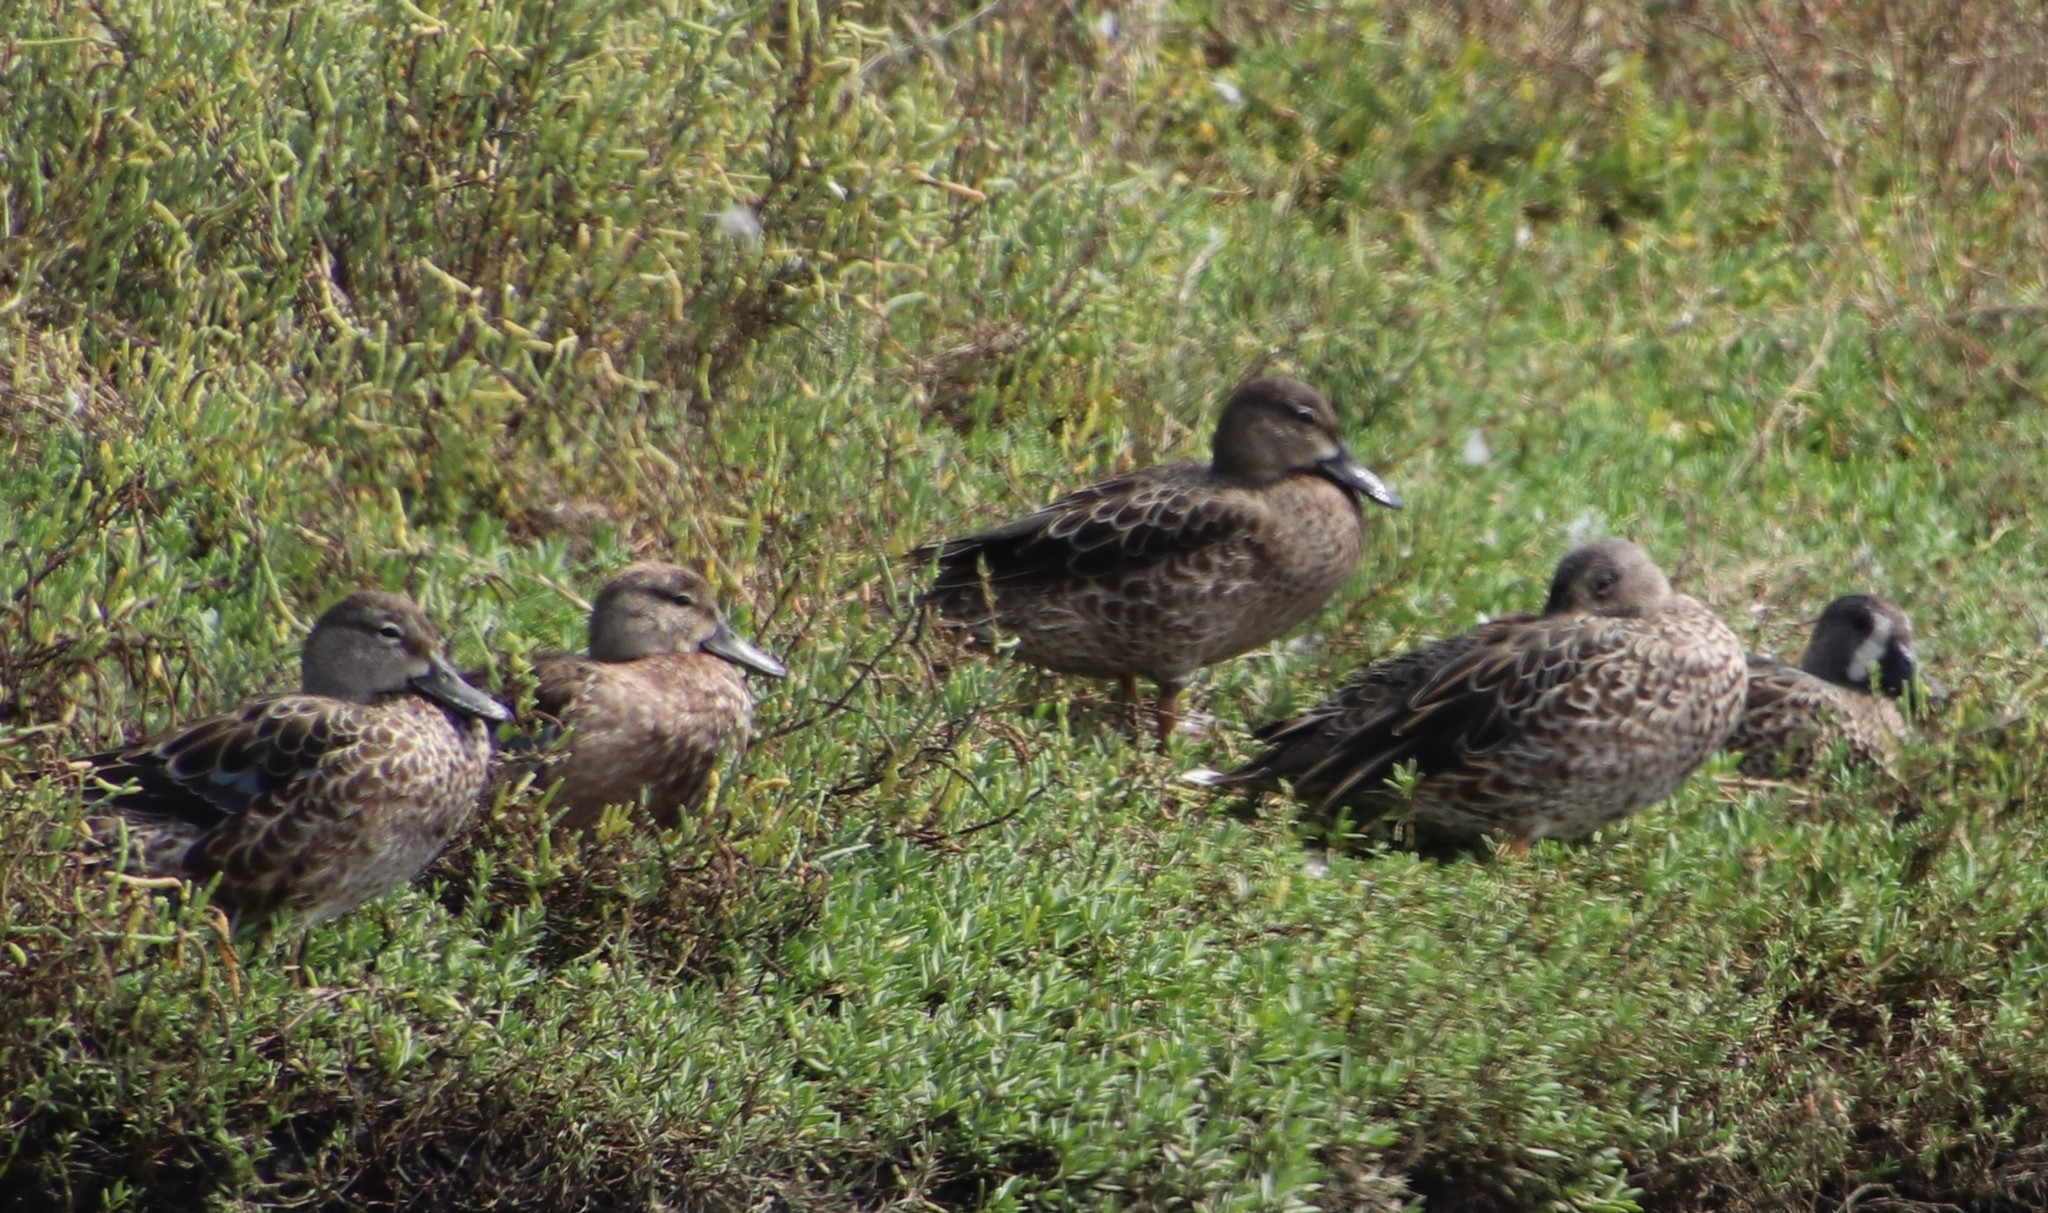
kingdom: Animalia
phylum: Chordata
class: Aves
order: Anseriformes
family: Anatidae
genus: Spatula
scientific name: Spatula discors
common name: Blue-winged teal
